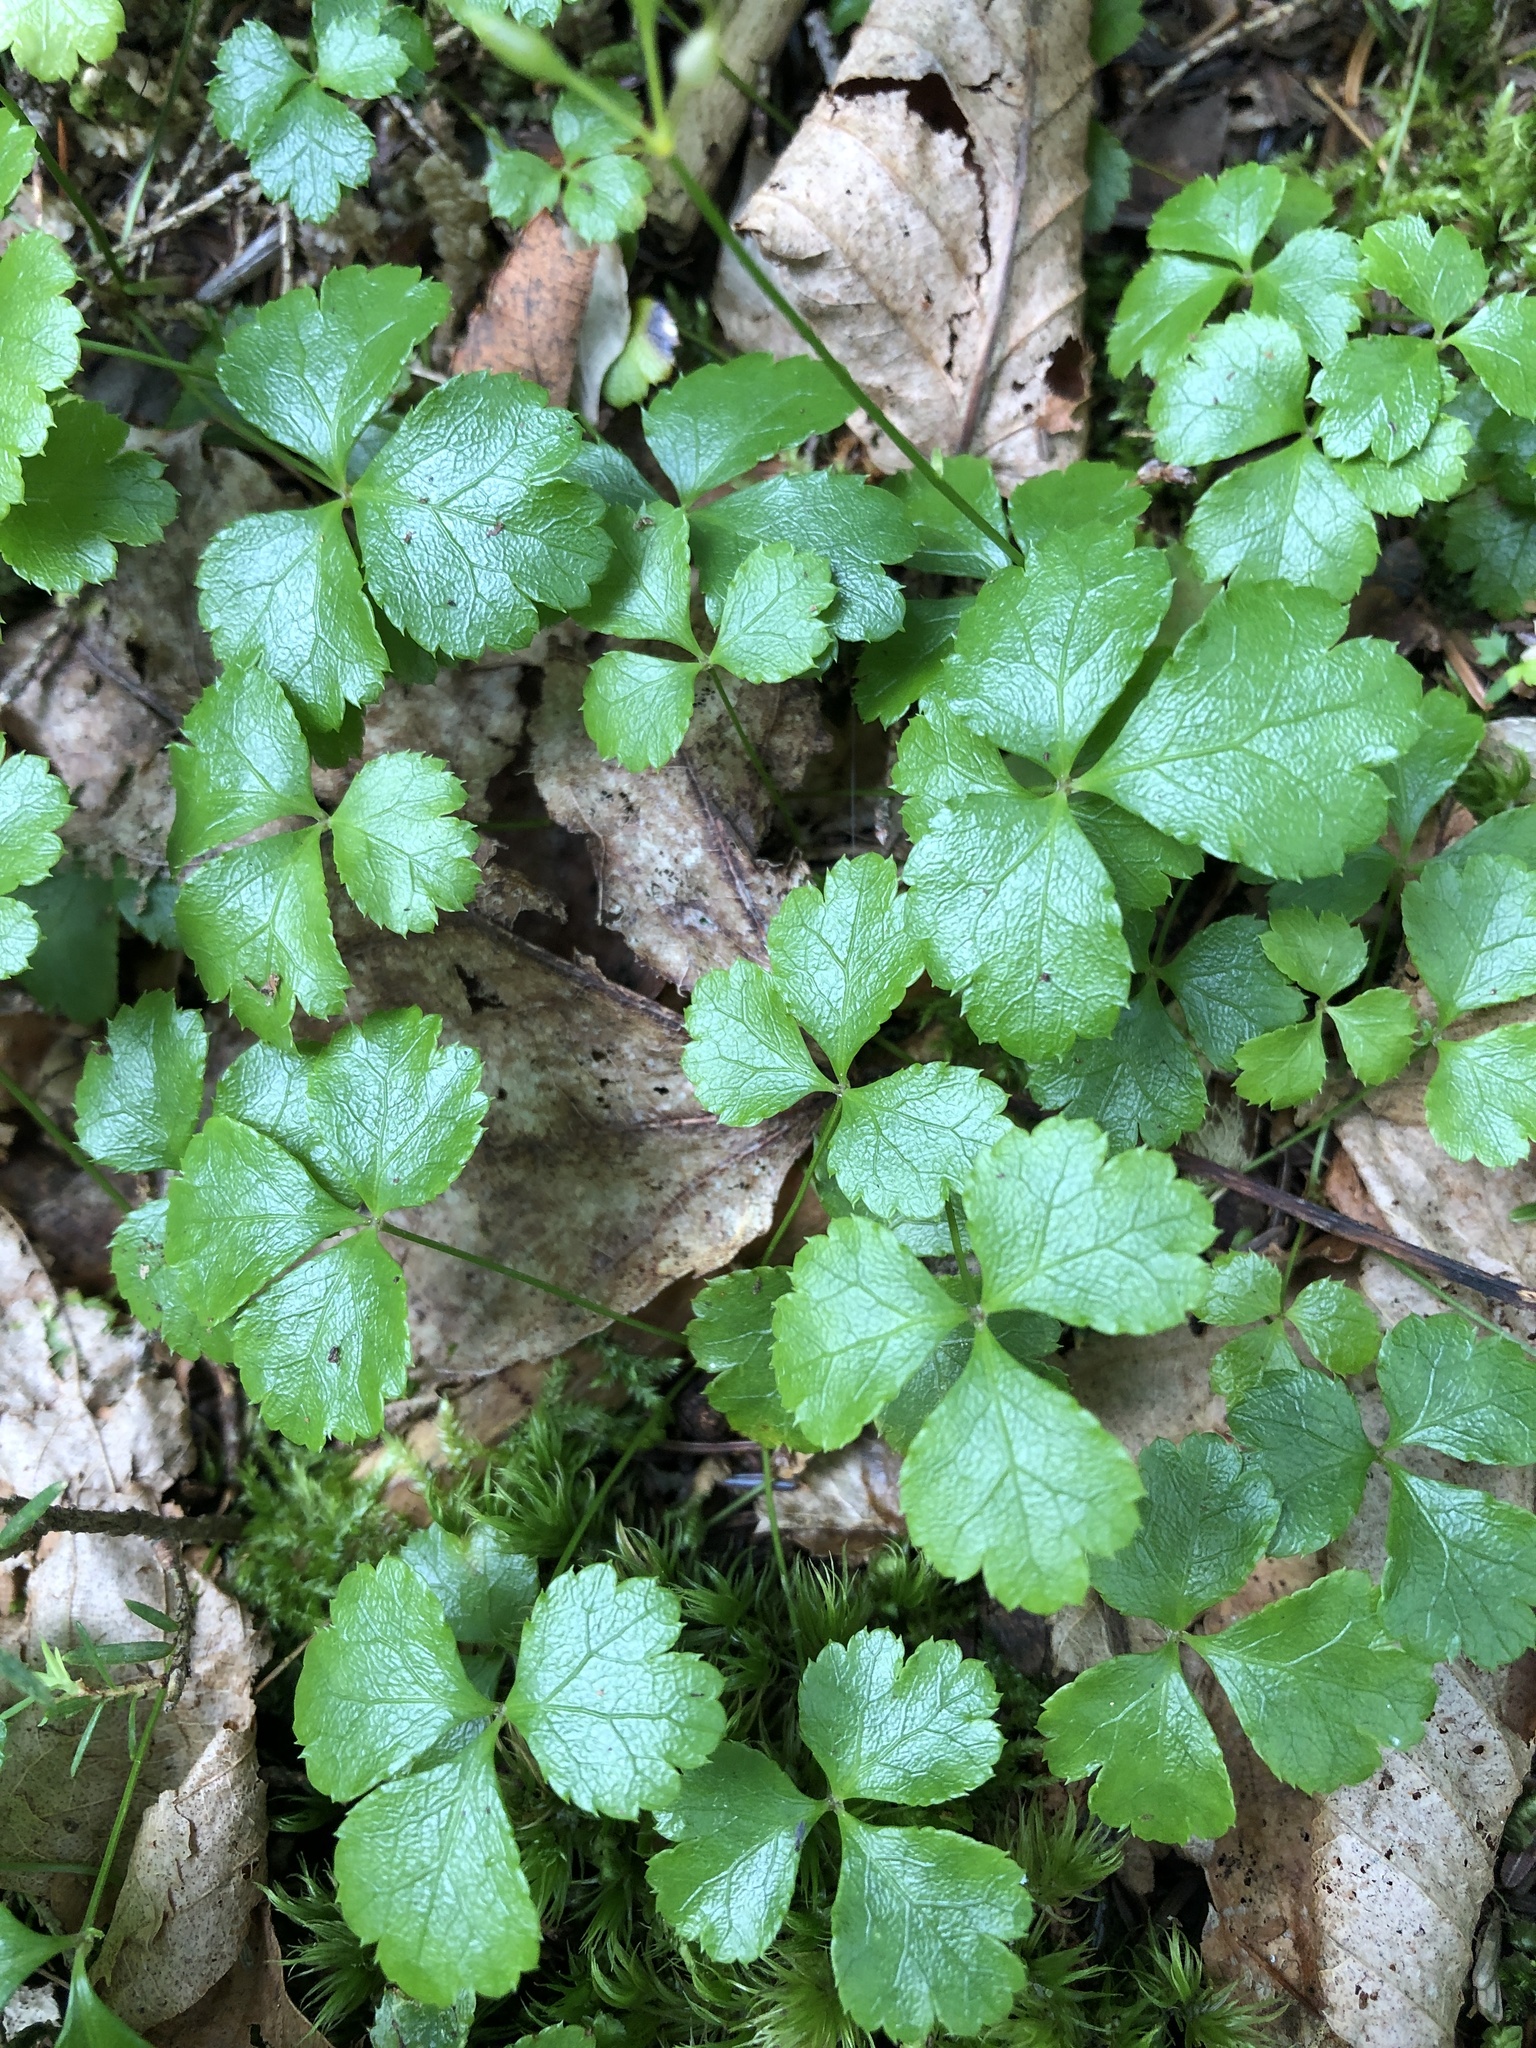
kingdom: Plantae
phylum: Tracheophyta
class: Magnoliopsida
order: Ranunculales
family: Ranunculaceae
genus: Coptis
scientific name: Coptis trifolia
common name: Canker-root
